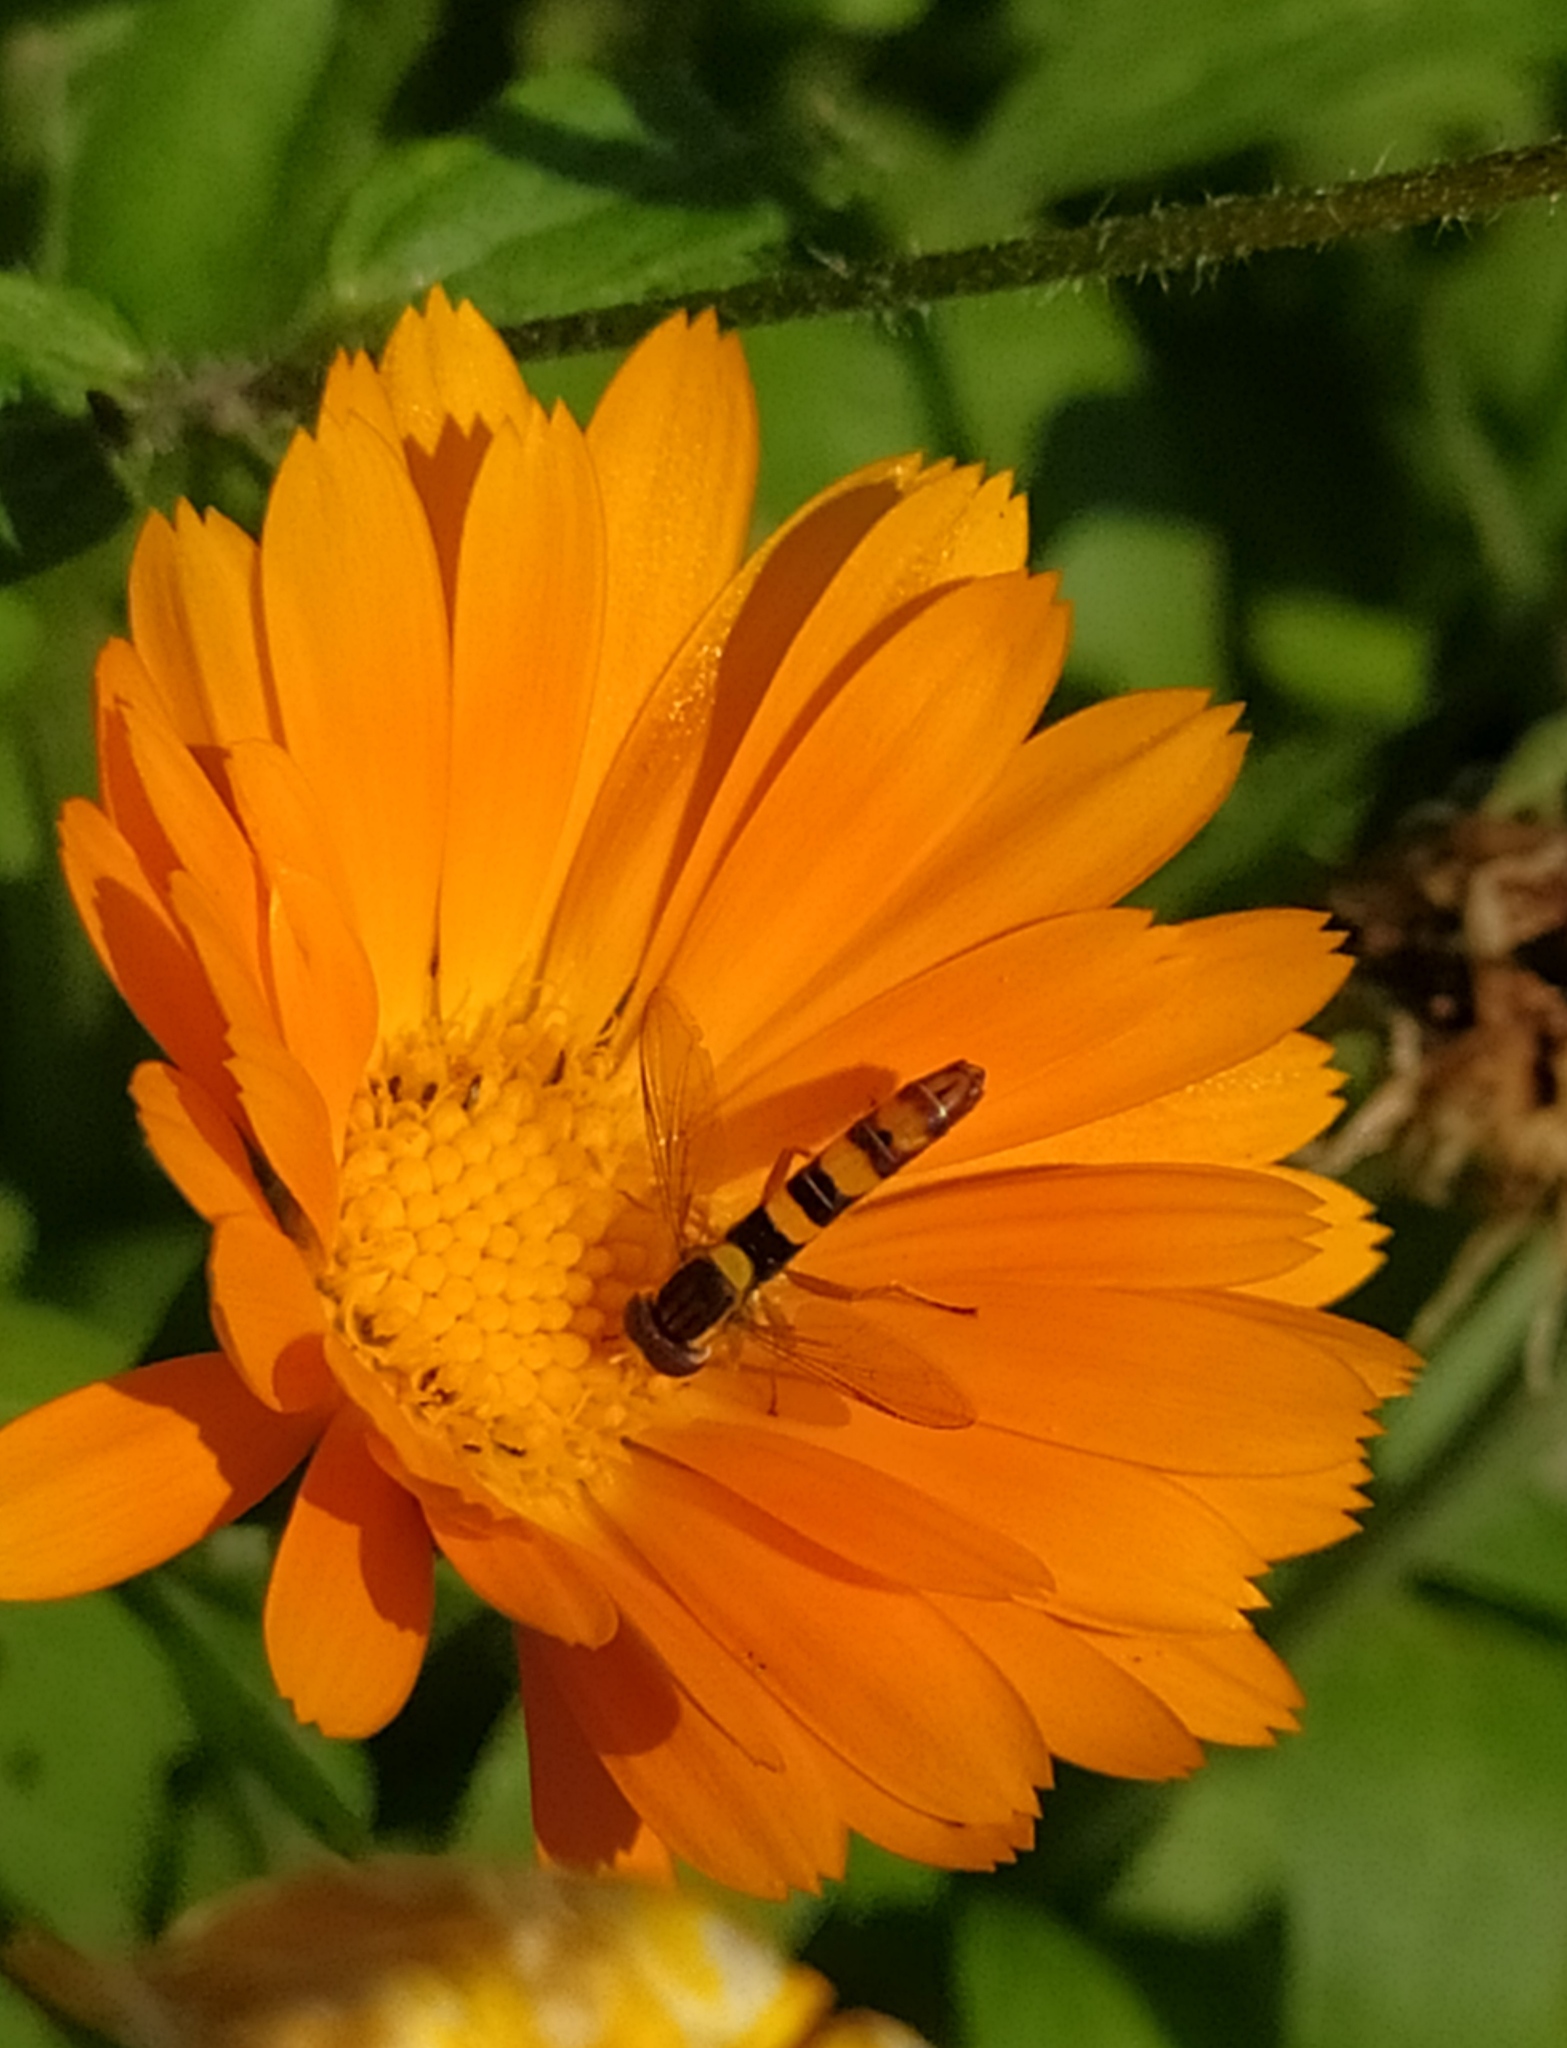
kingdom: Animalia
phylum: Arthropoda
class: Insecta
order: Diptera
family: Syrphidae
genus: Sphaerophoria
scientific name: Sphaerophoria scripta
